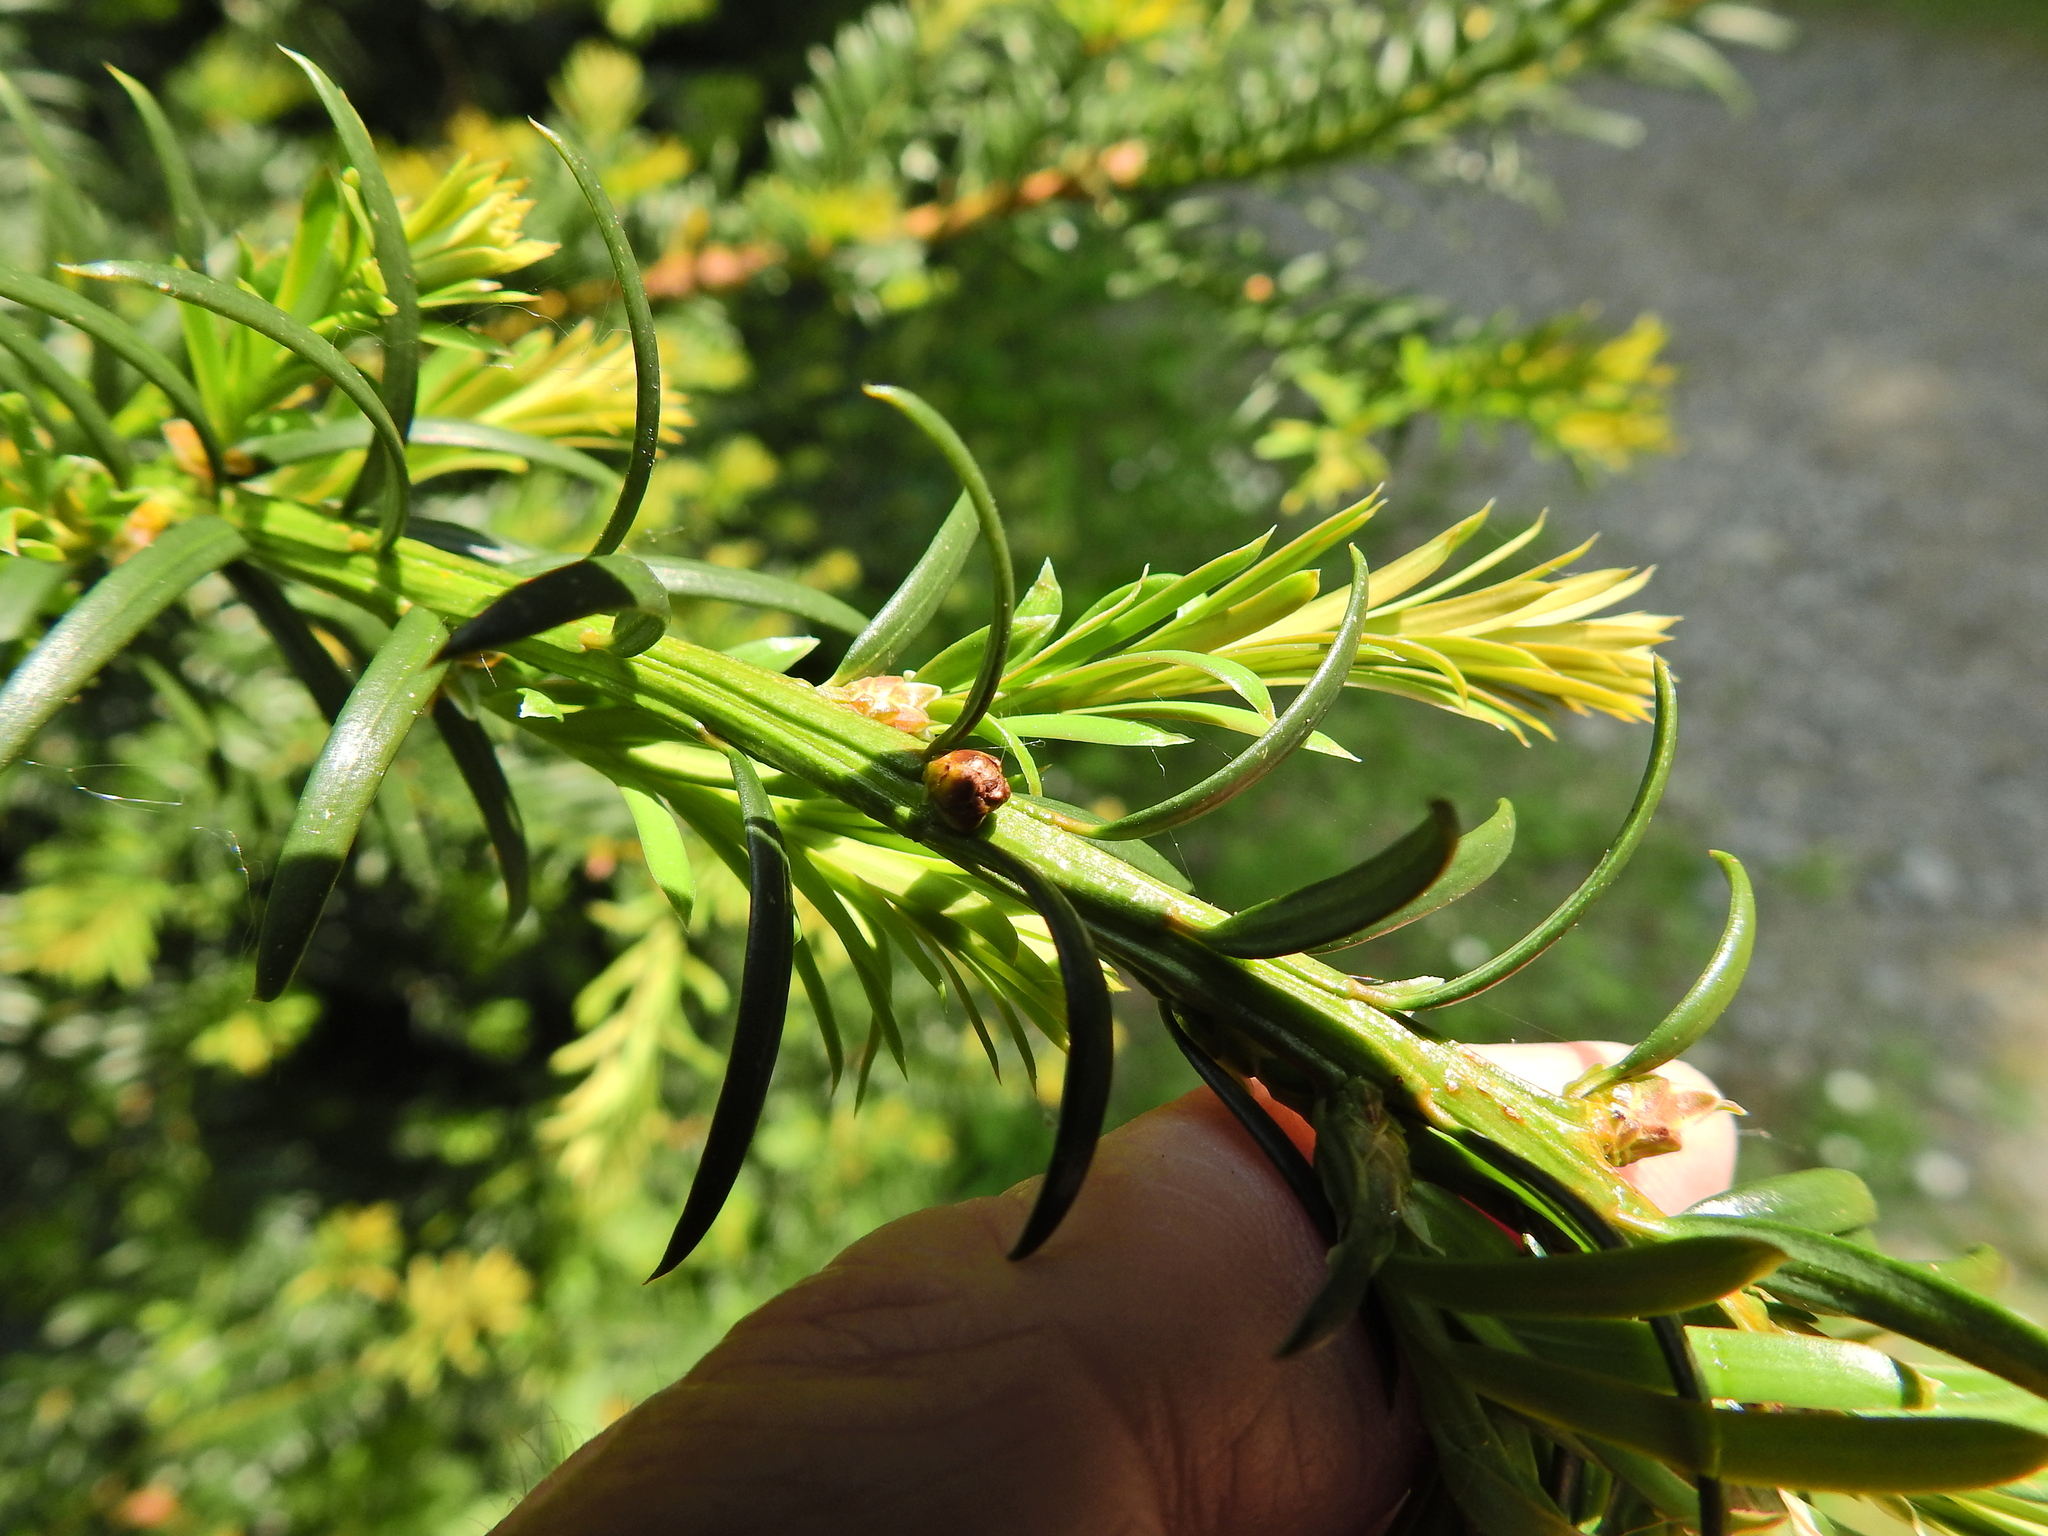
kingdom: Plantae
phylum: Tracheophyta
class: Pinopsida
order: Pinales
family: Taxaceae
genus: Taxus
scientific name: Taxus baccata
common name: Yew
